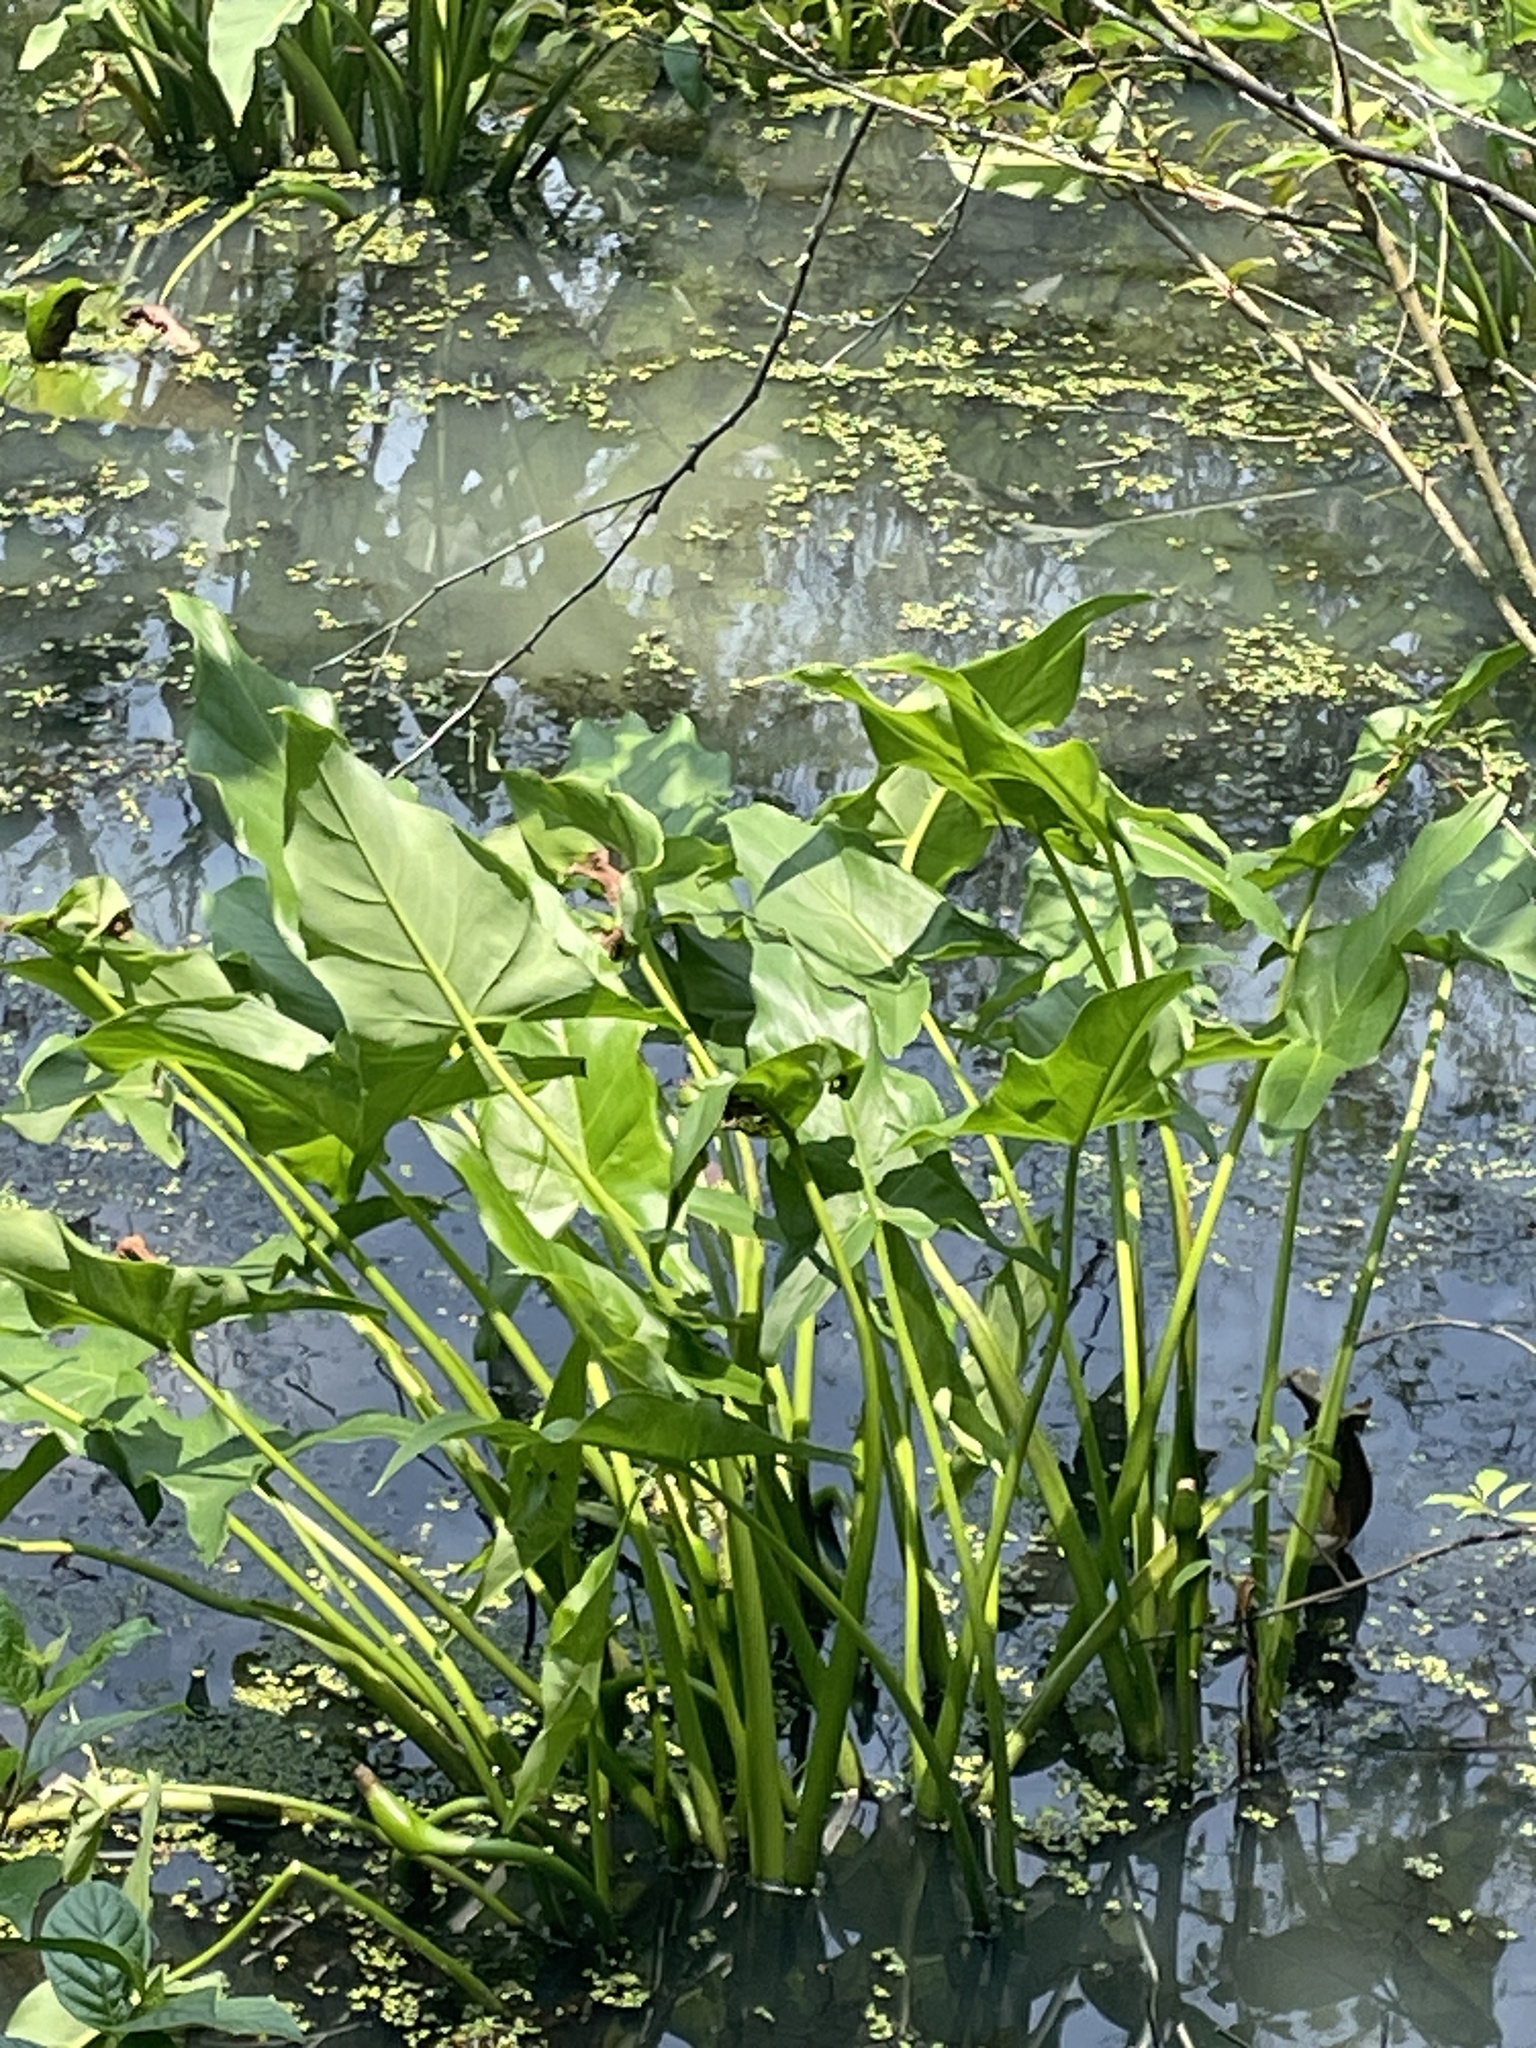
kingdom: Plantae
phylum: Tracheophyta
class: Liliopsida
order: Alismatales
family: Araceae
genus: Peltandra
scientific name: Peltandra virginica
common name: Arrow arum
